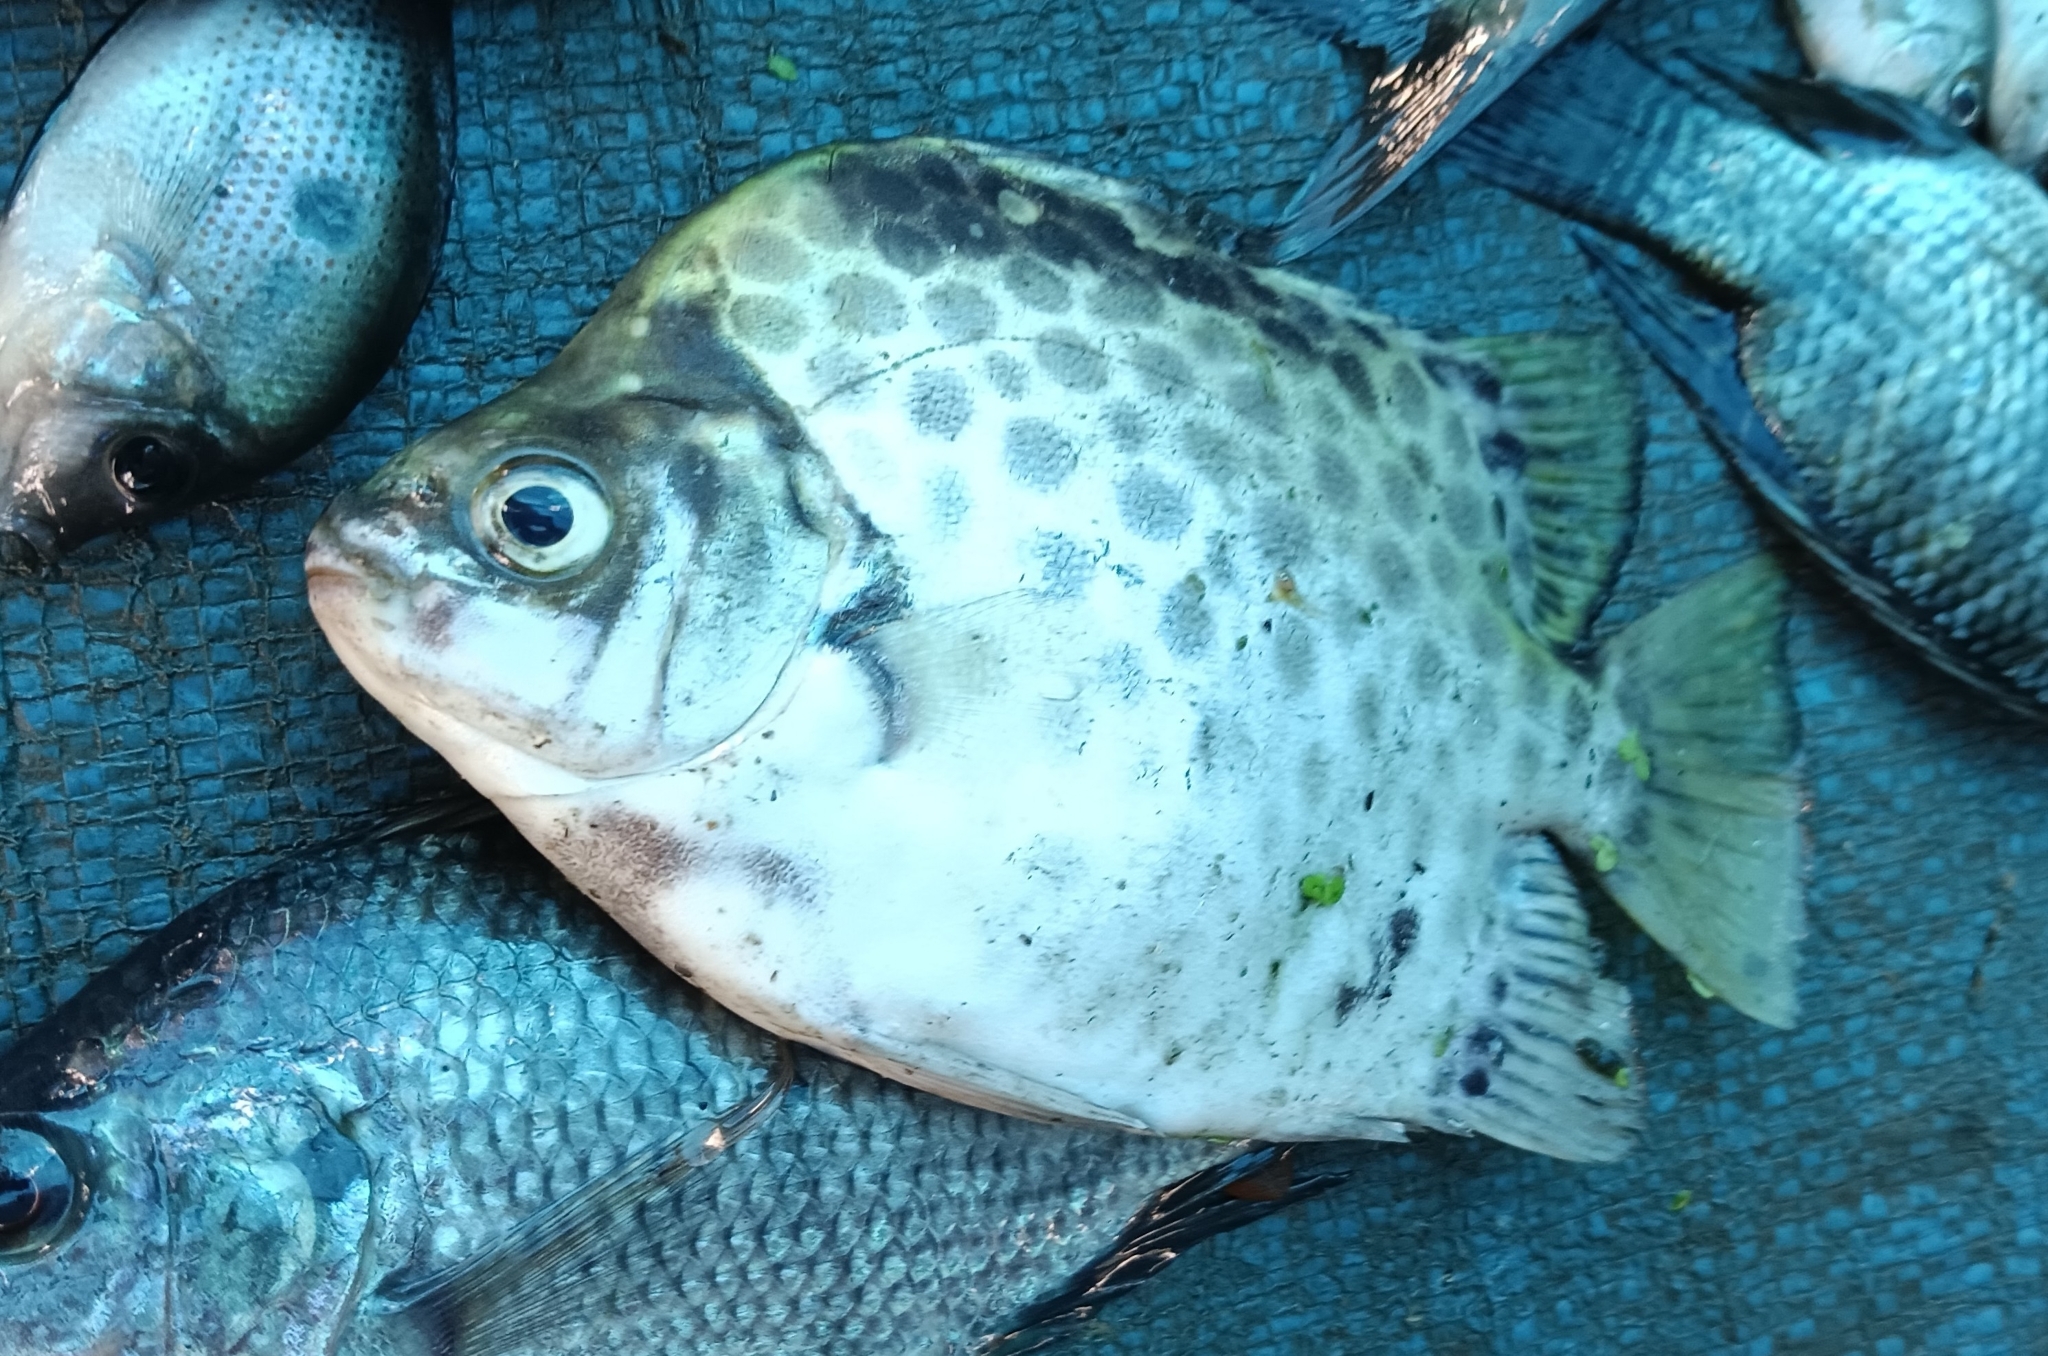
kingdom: Animalia
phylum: Chordata
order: Perciformes
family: Scatophagidae
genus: Scatophagus
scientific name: Scatophagus argus
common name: Spotted scat
